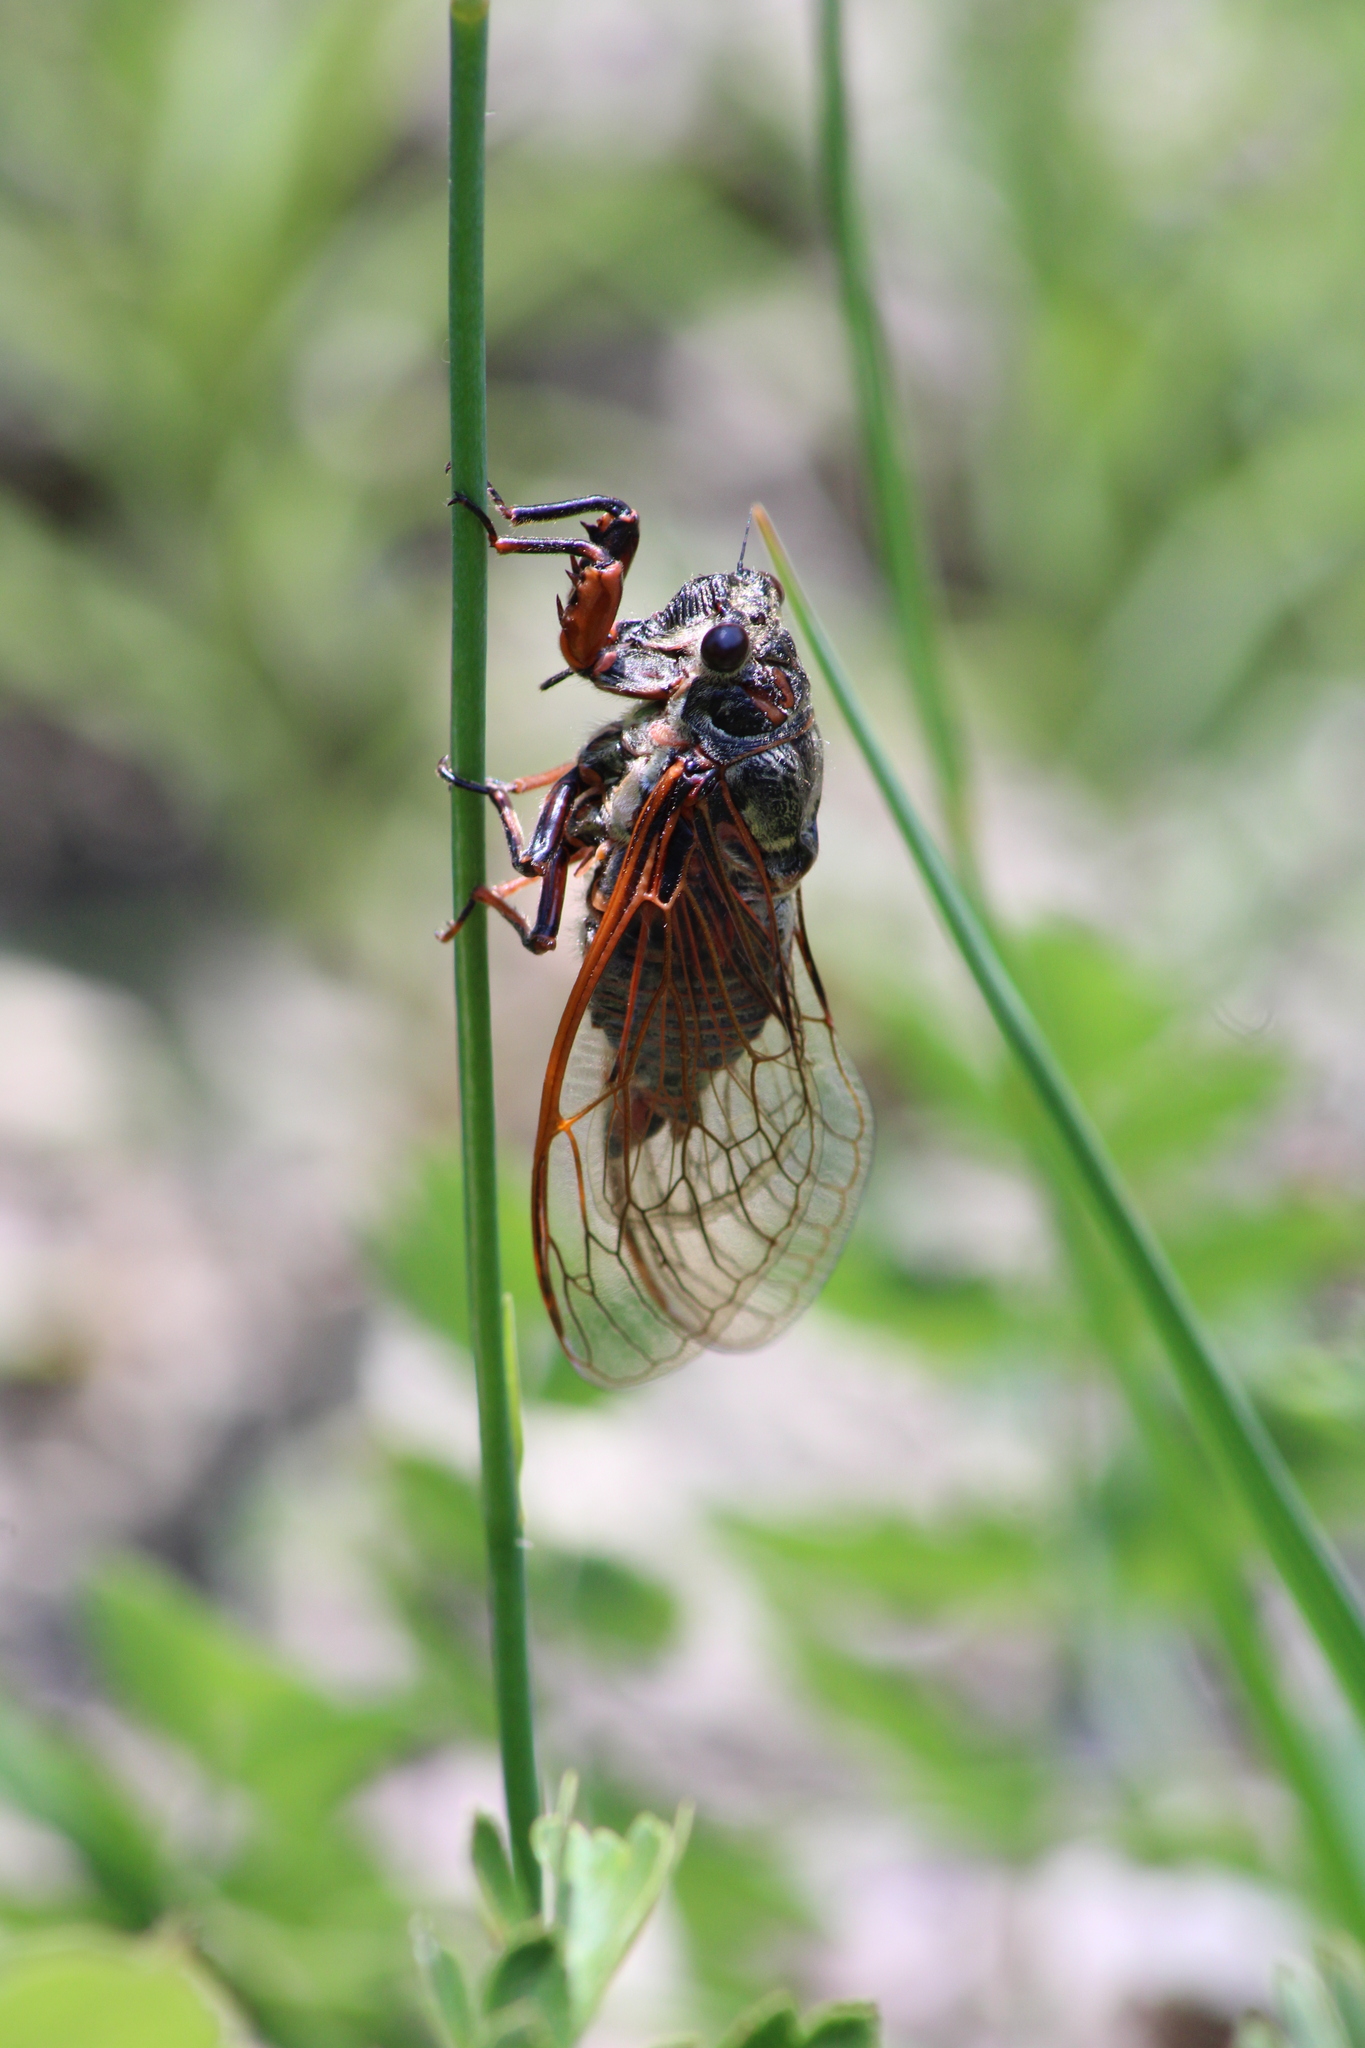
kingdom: Animalia
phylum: Arthropoda
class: Insecta
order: Hemiptera
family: Cicadidae
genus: Tibicina
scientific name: Tibicina haematodes
